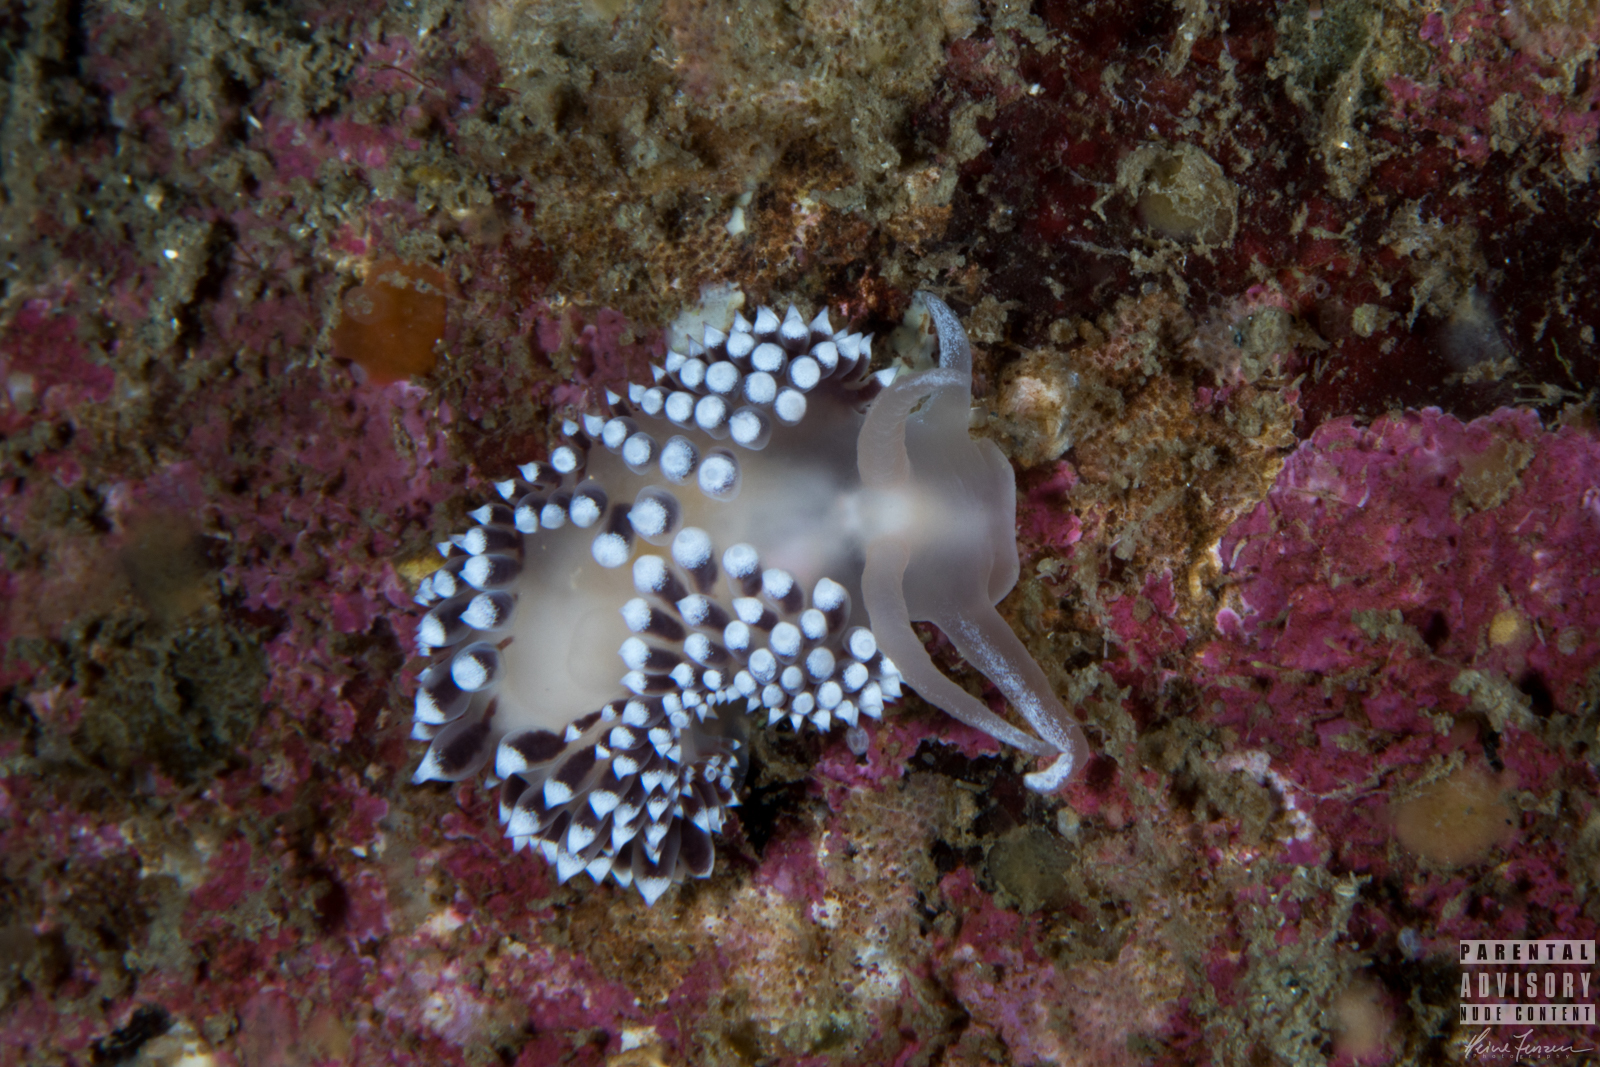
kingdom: Animalia
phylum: Mollusca
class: Gastropoda
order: Nudibranchia
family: Coryphellidae
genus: Coryphella
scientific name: Coryphella verrucosa
